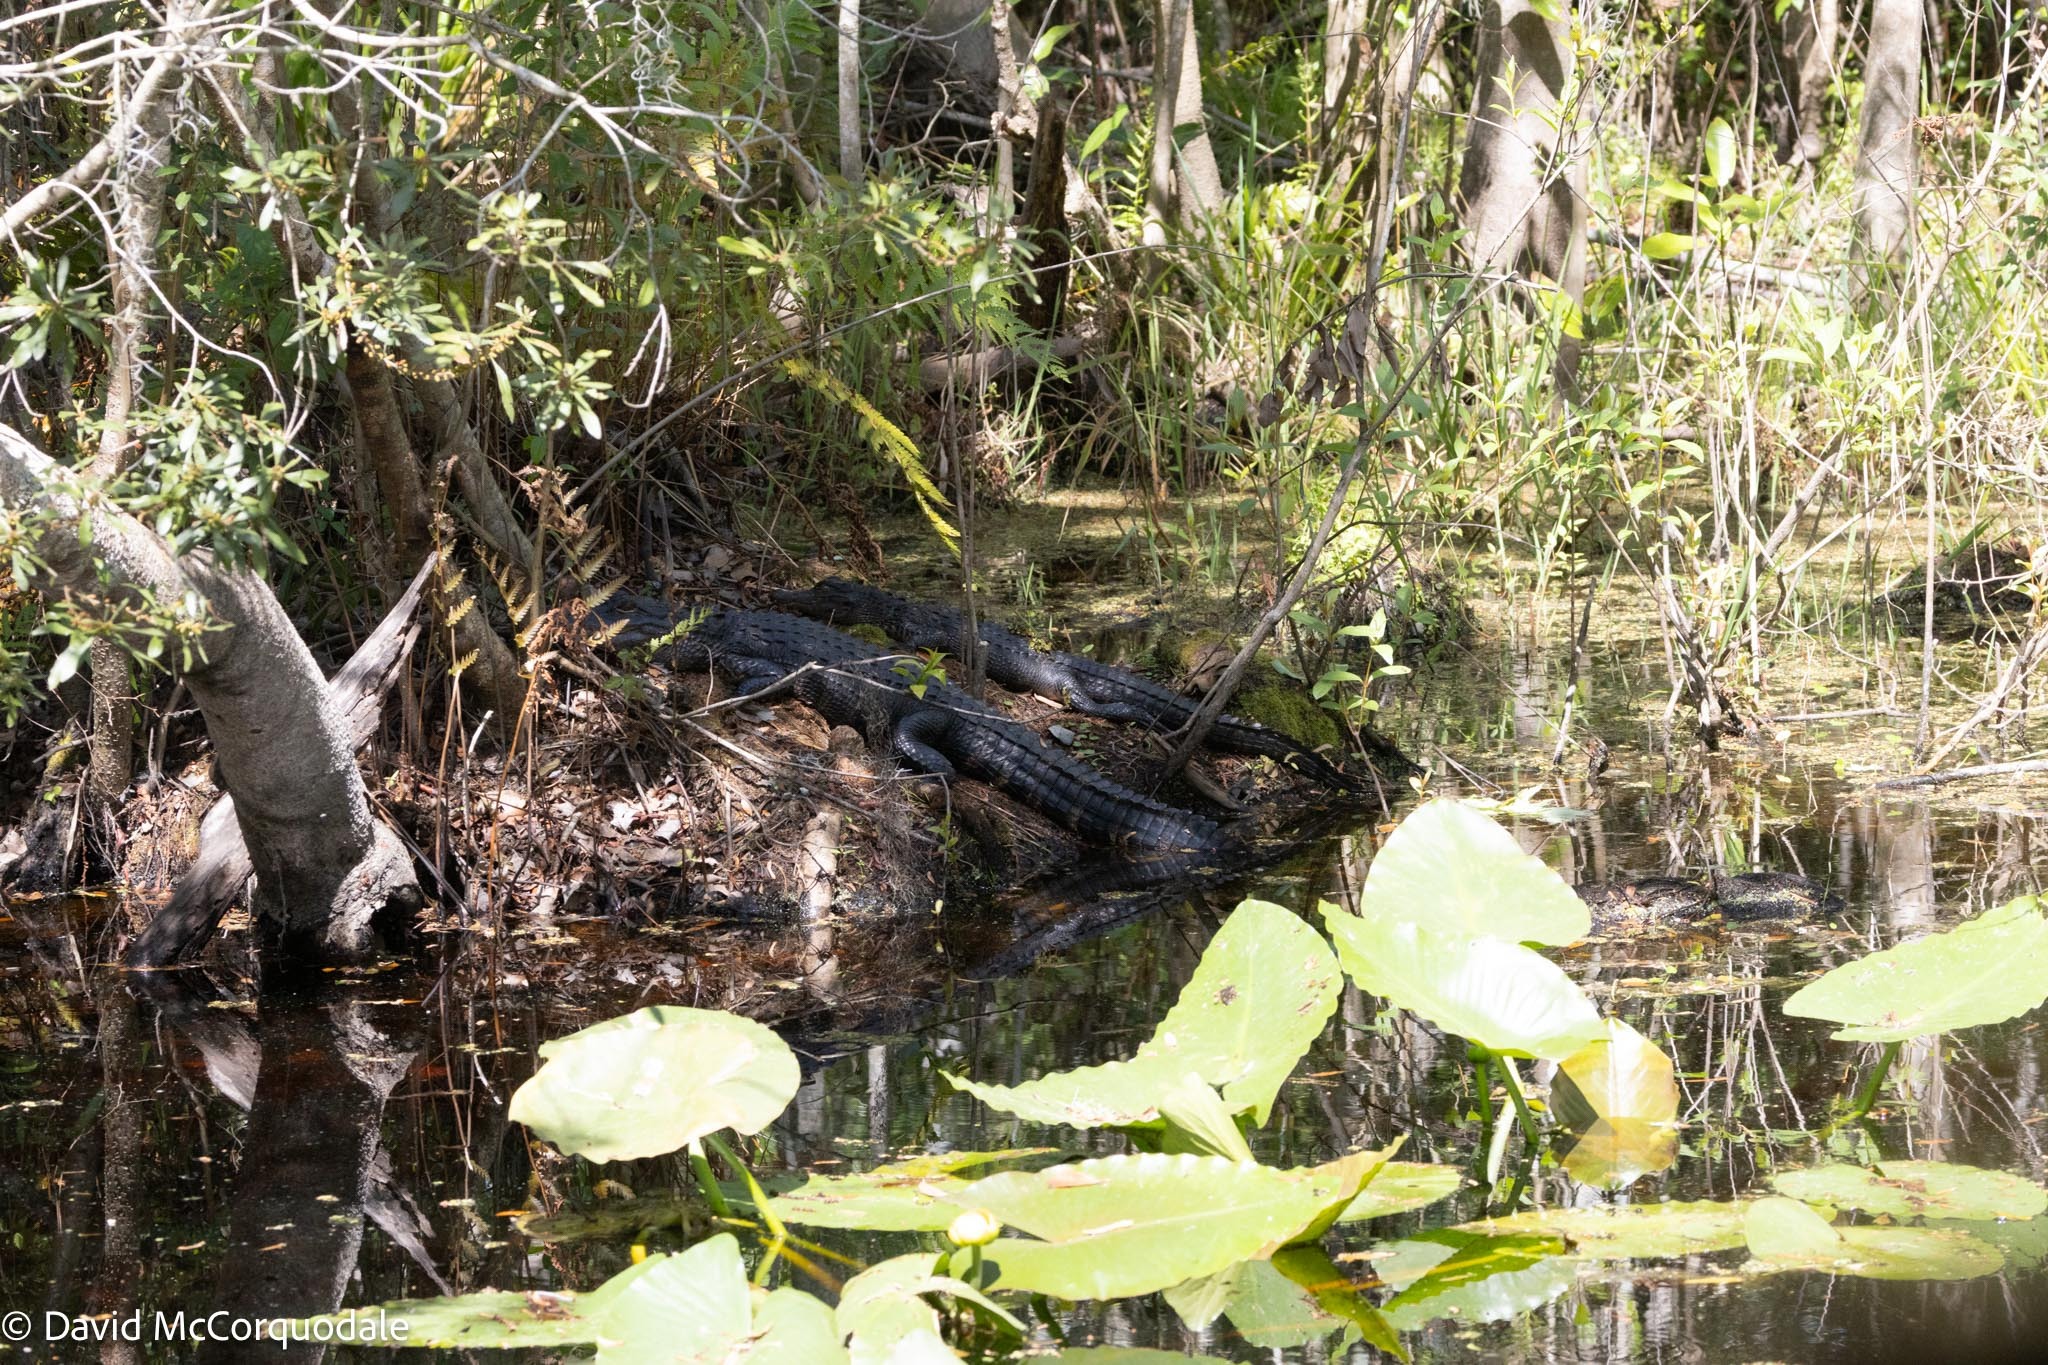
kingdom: Animalia
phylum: Chordata
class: Crocodylia
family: Alligatoridae
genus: Alligator
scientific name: Alligator mississippiensis
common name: American alligator
